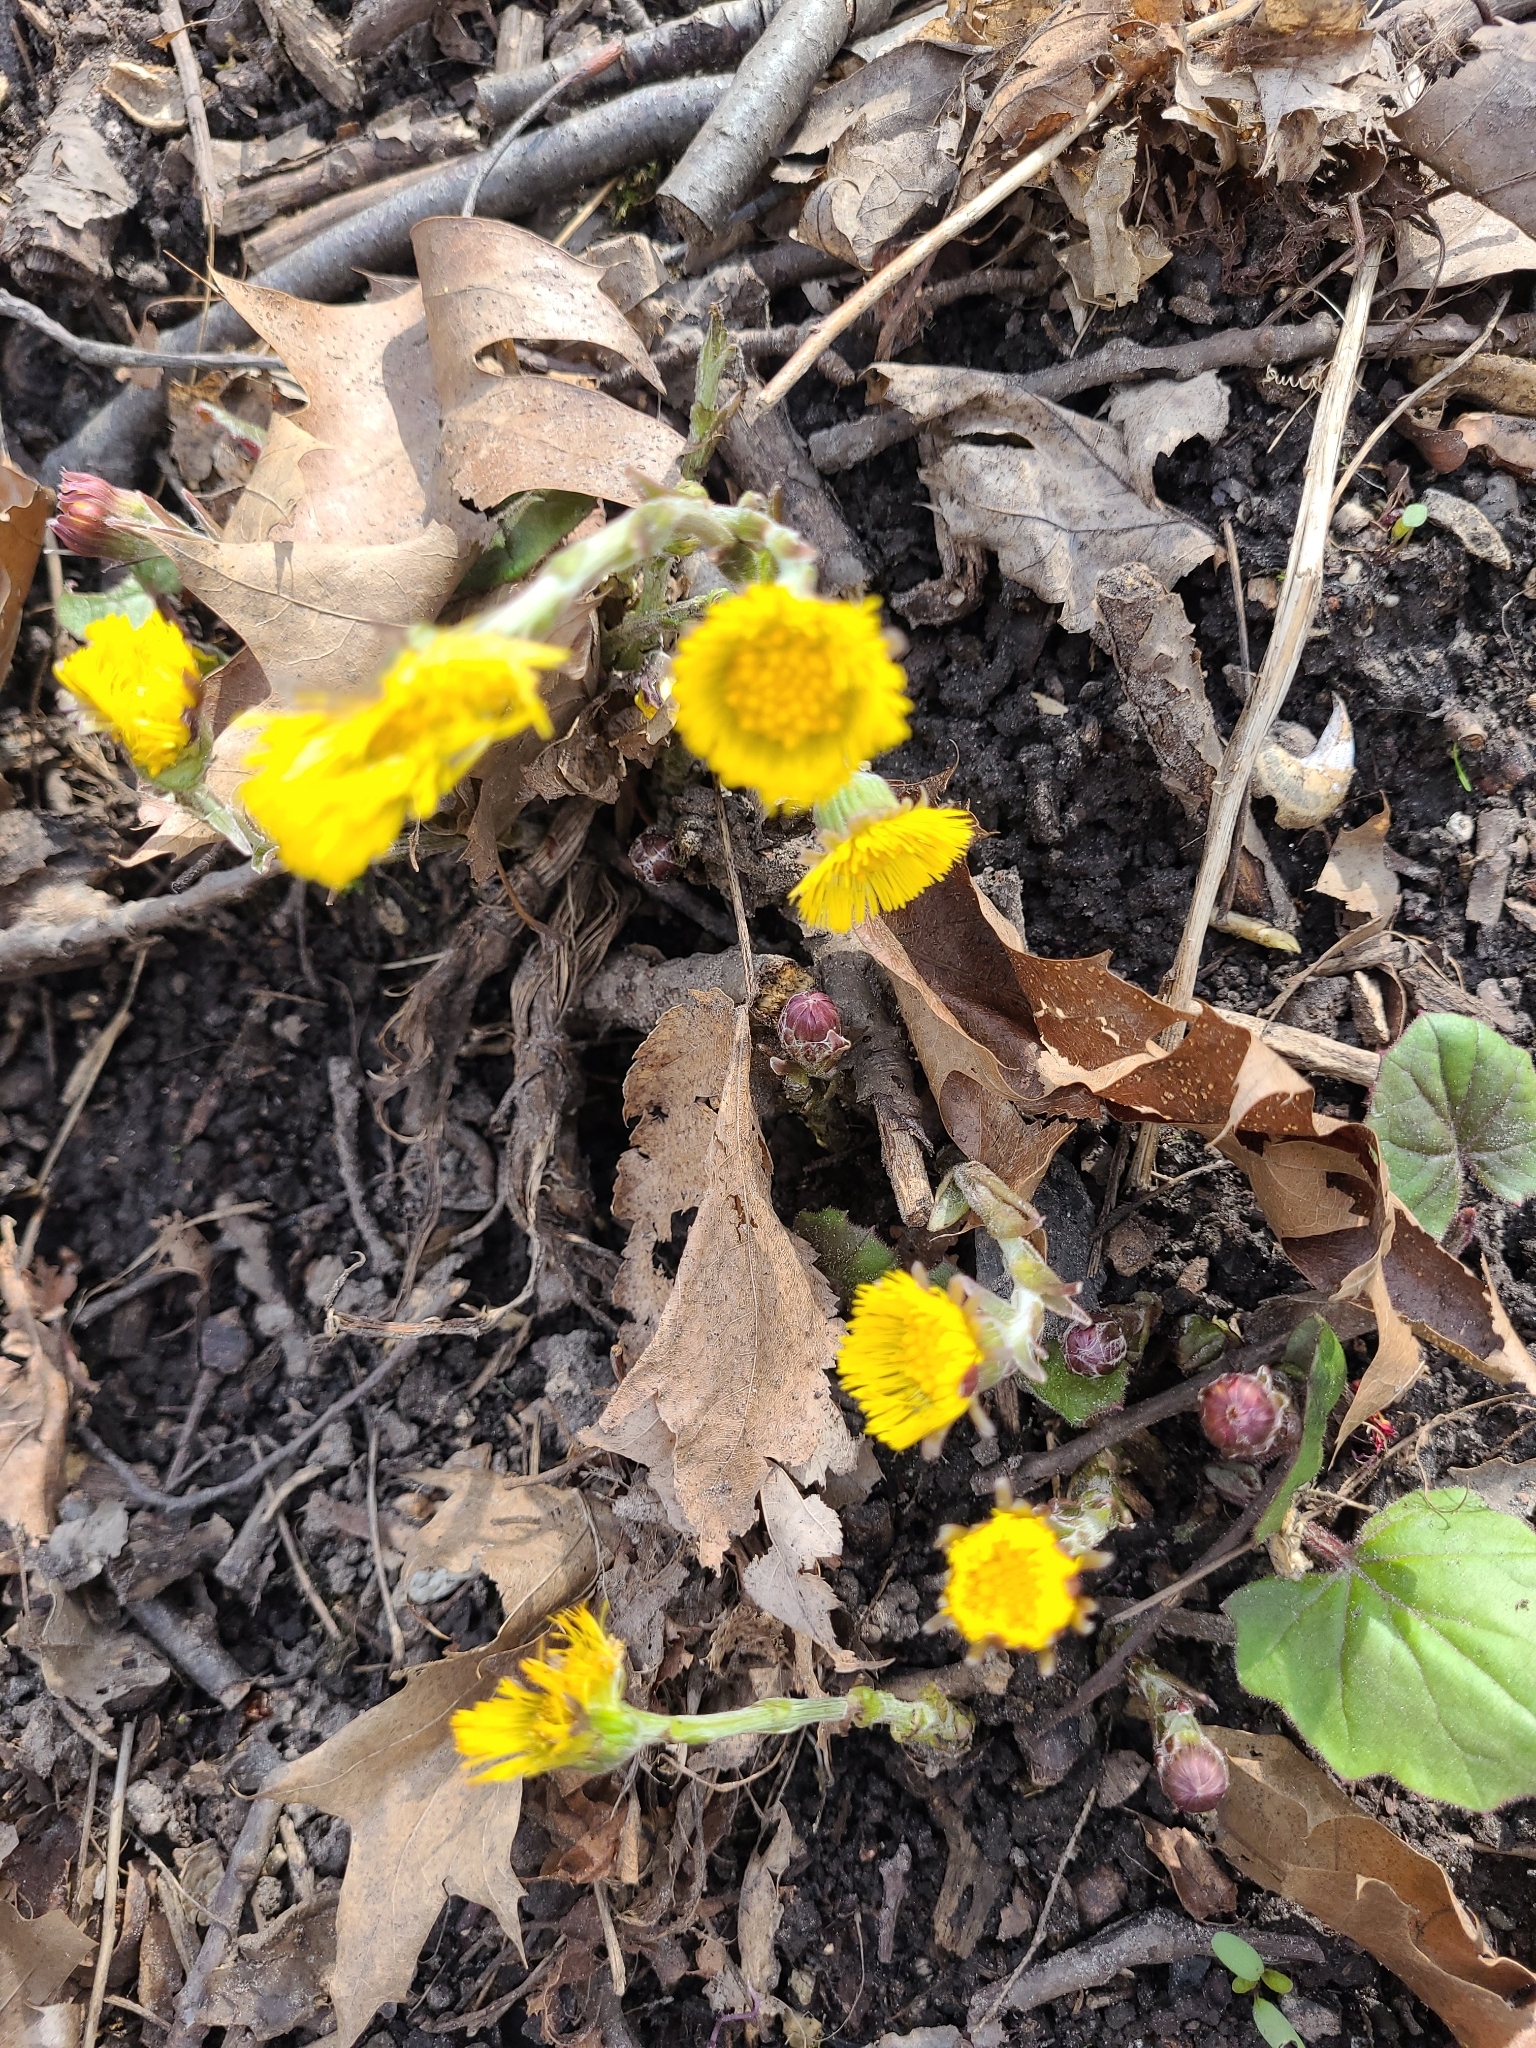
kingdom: Plantae
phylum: Tracheophyta
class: Magnoliopsida
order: Asterales
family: Asteraceae
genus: Tussilago
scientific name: Tussilago farfara
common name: Coltsfoot
